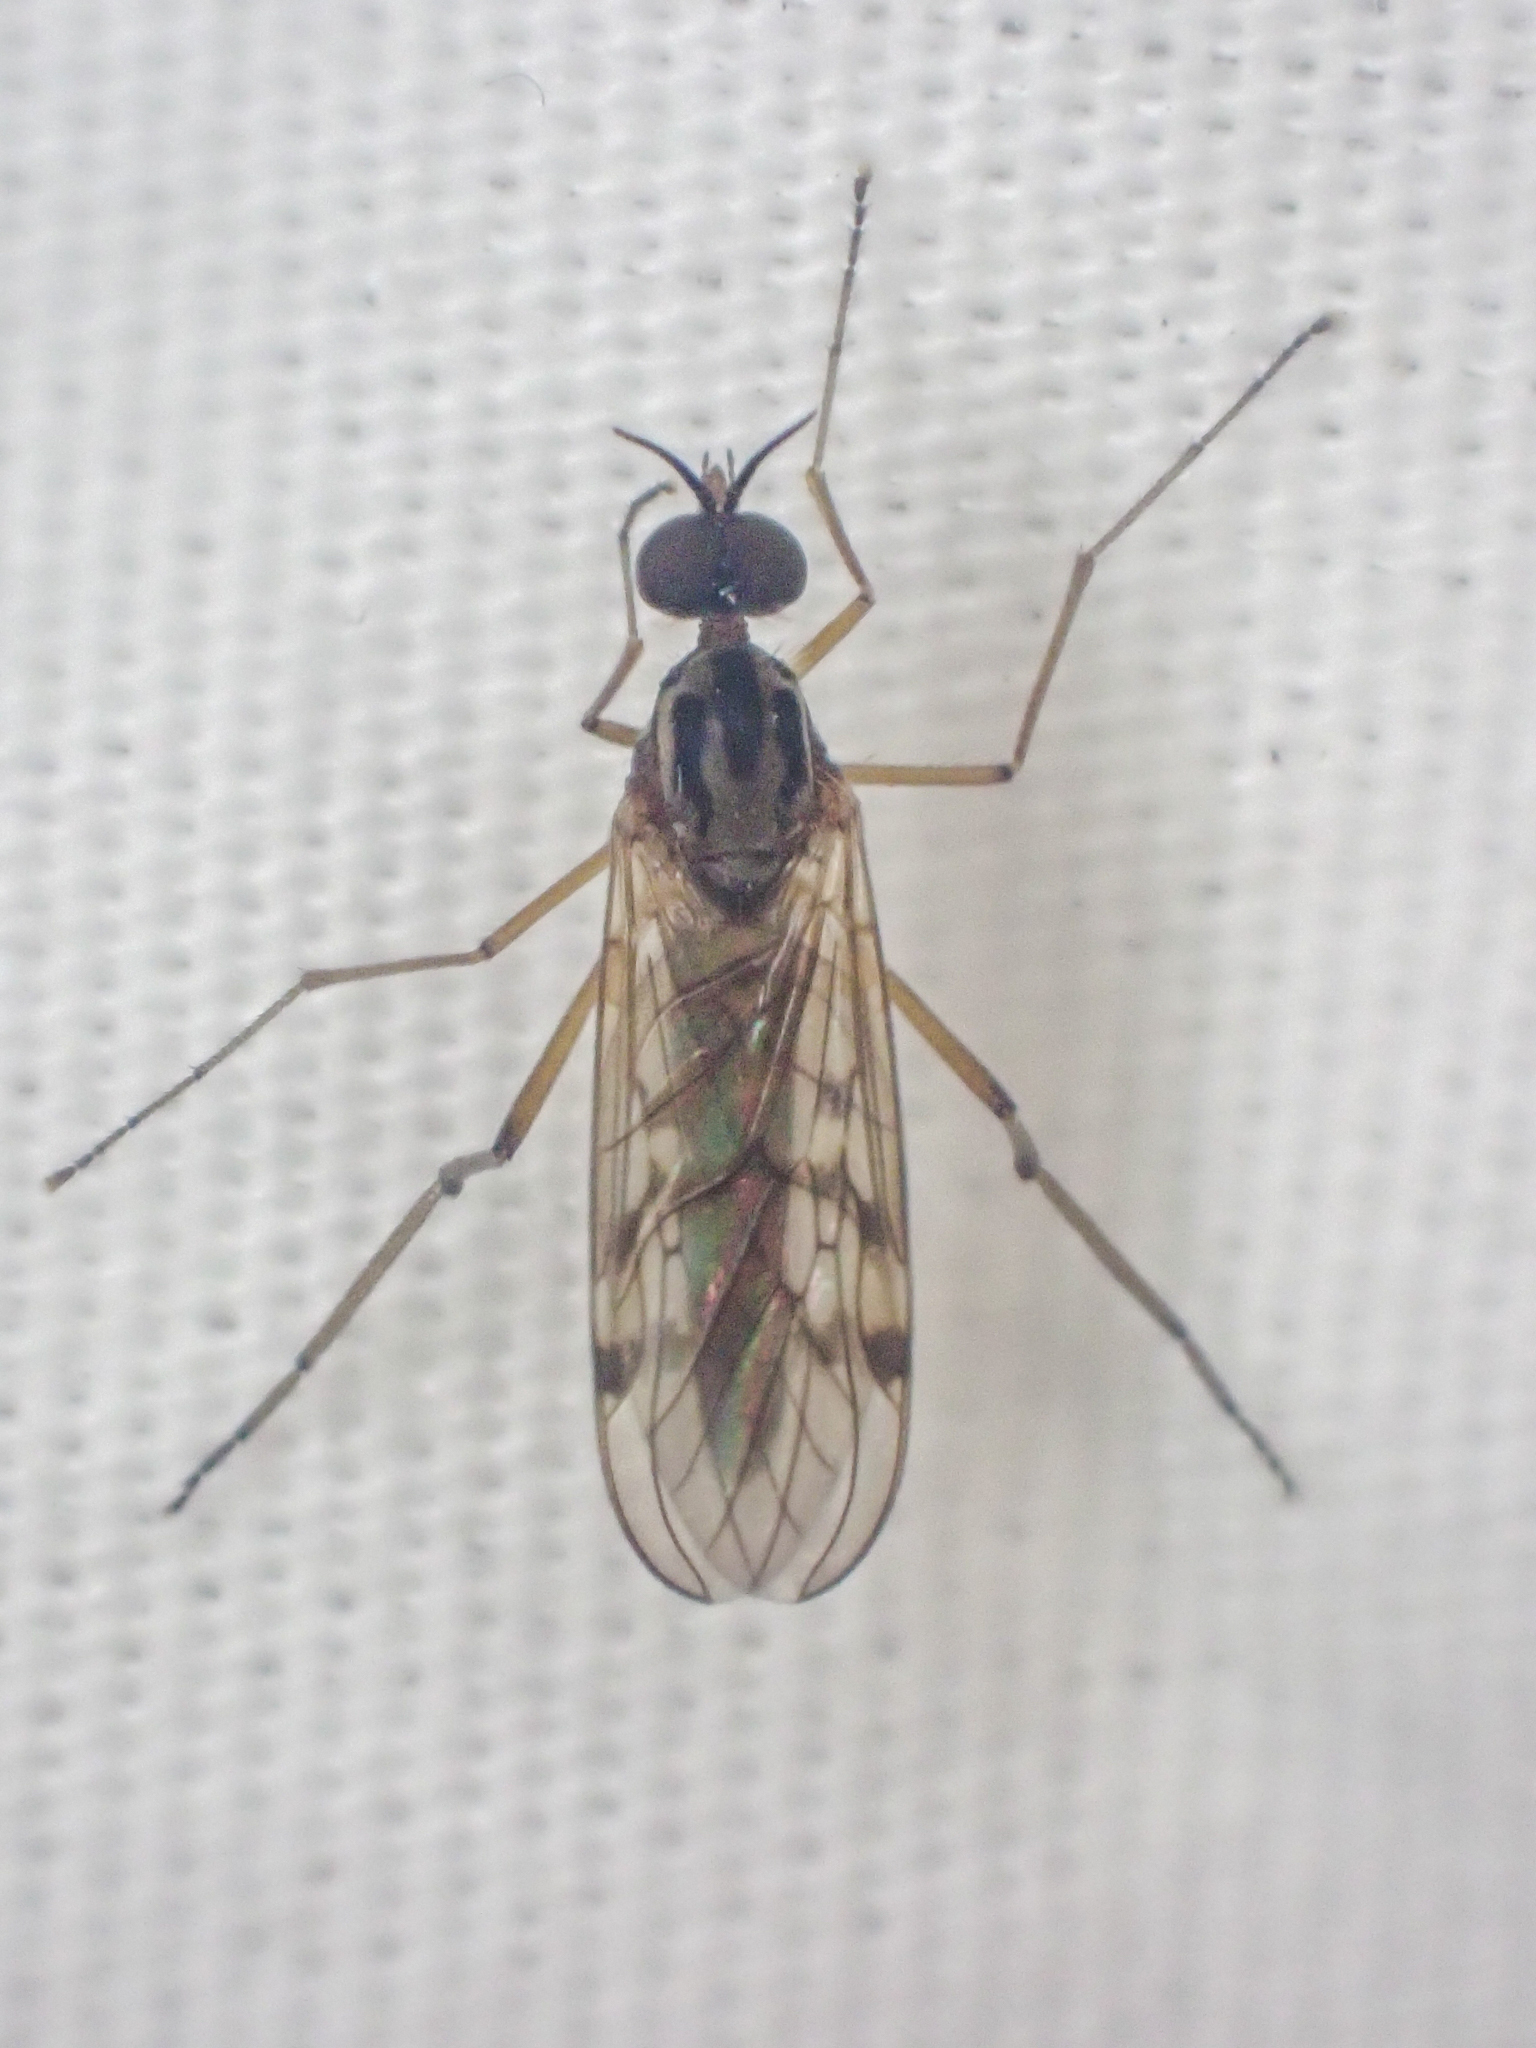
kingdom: Animalia
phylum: Arthropoda
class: Insecta
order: Diptera
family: Anisopodidae
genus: Sylvicola
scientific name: Sylvicola punctatus
